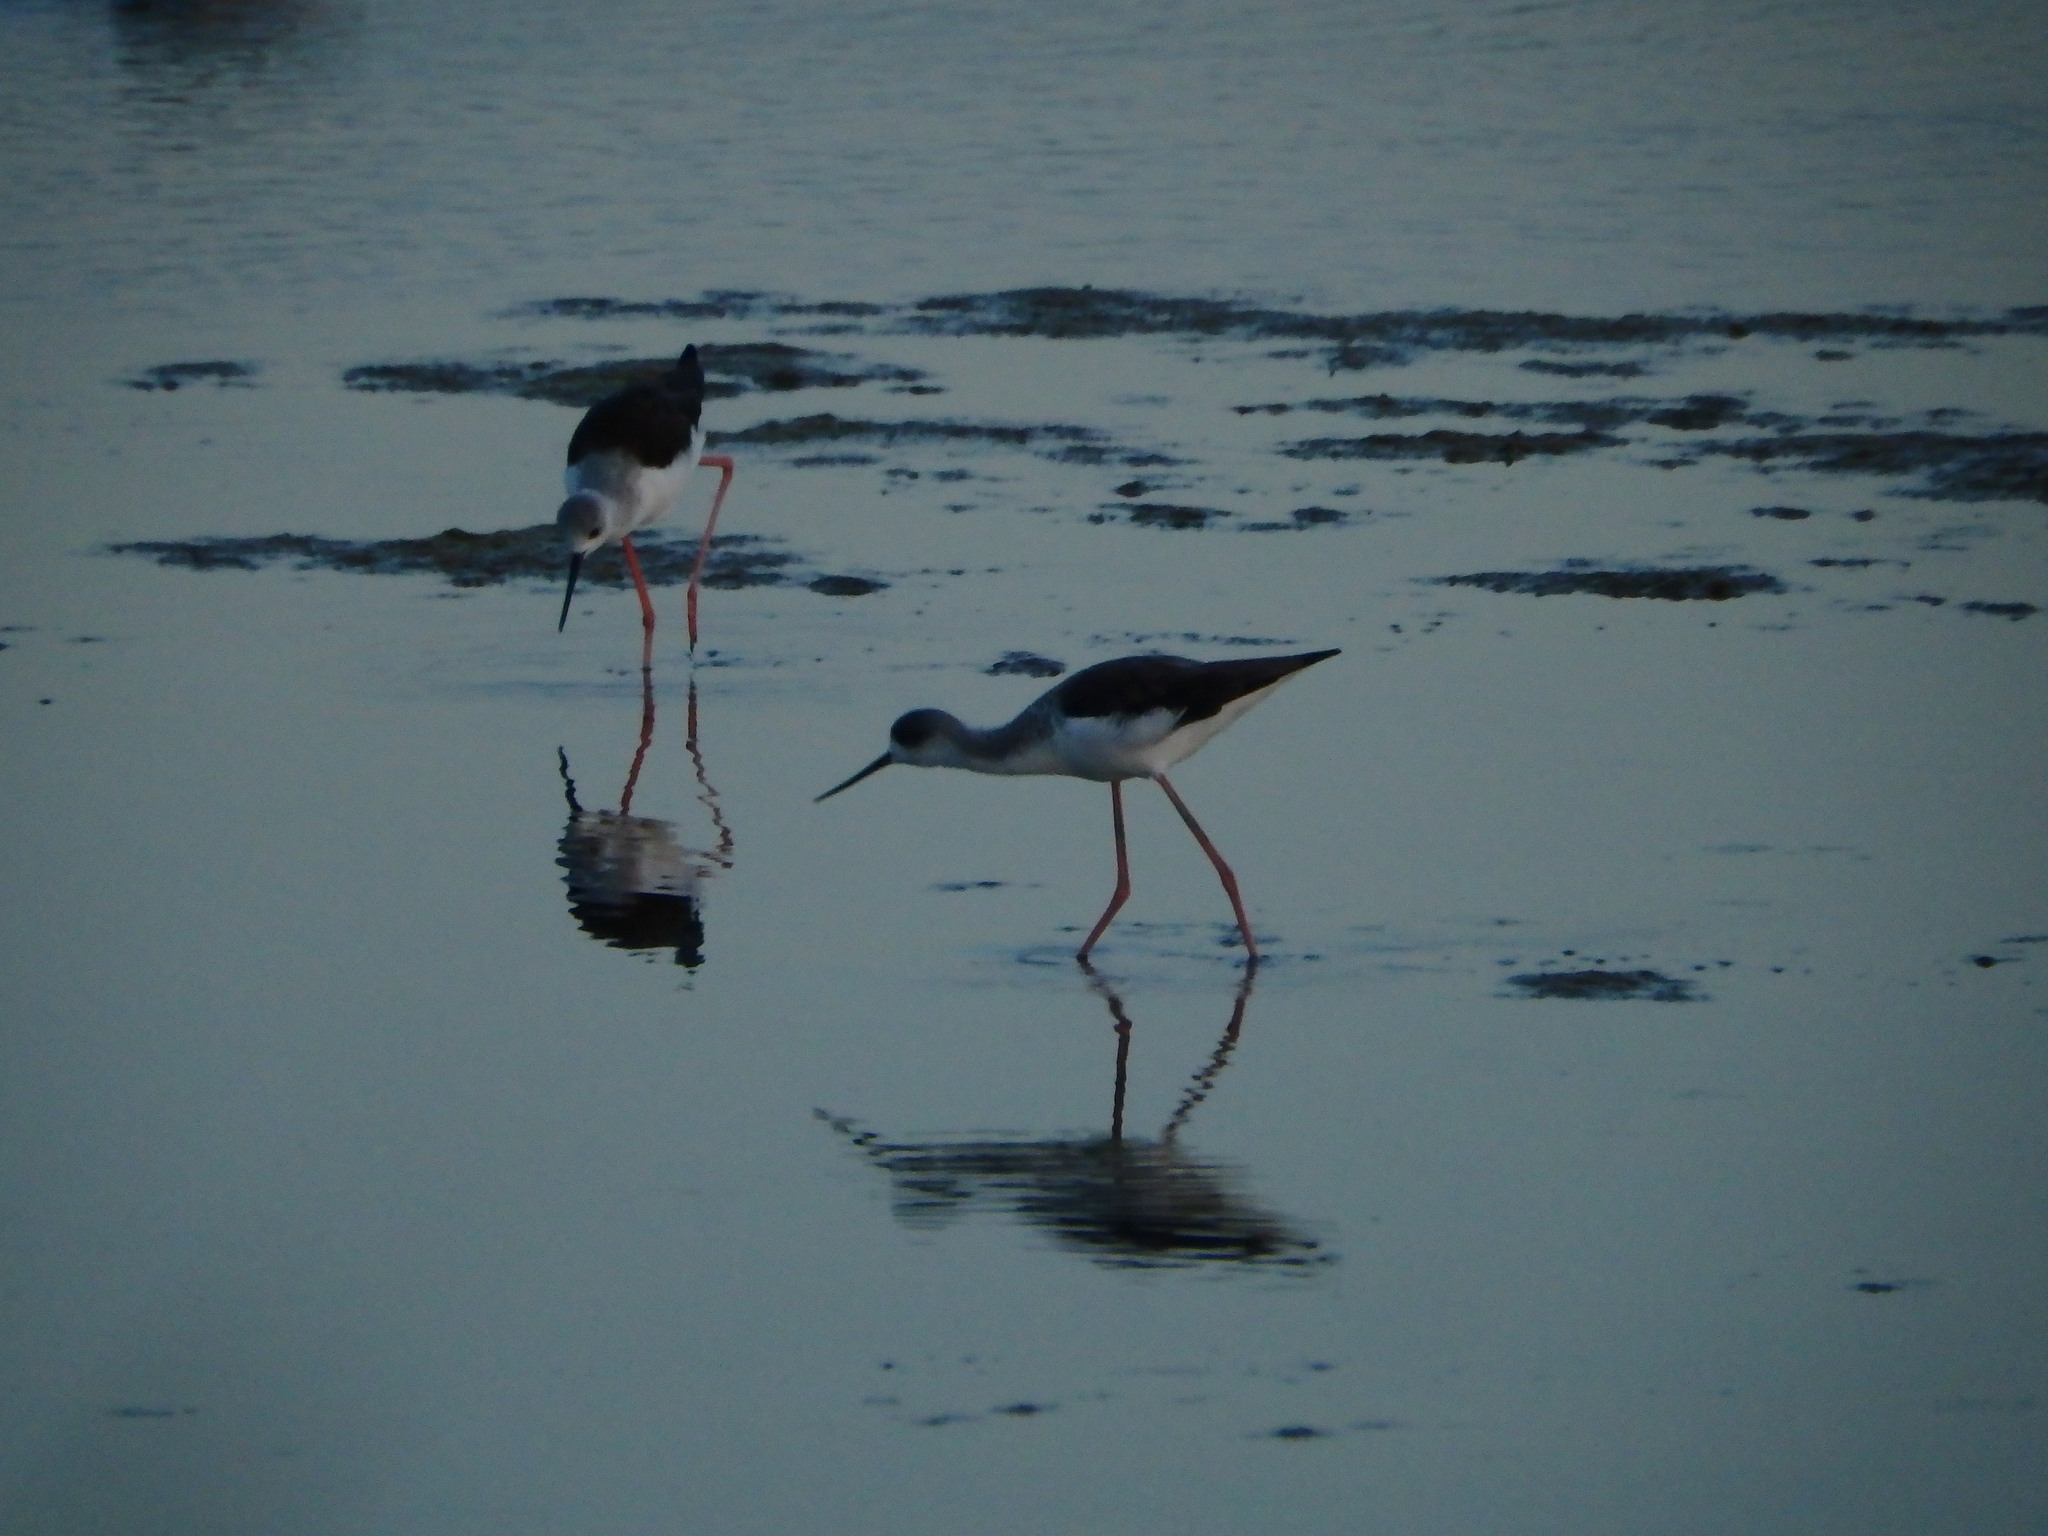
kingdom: Animalia
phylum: Chordata
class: Aves
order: Charadriiformes
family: Recurvirostridae
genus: Himantopus
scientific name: Himantopus himantopus
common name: Black-winged stilt
